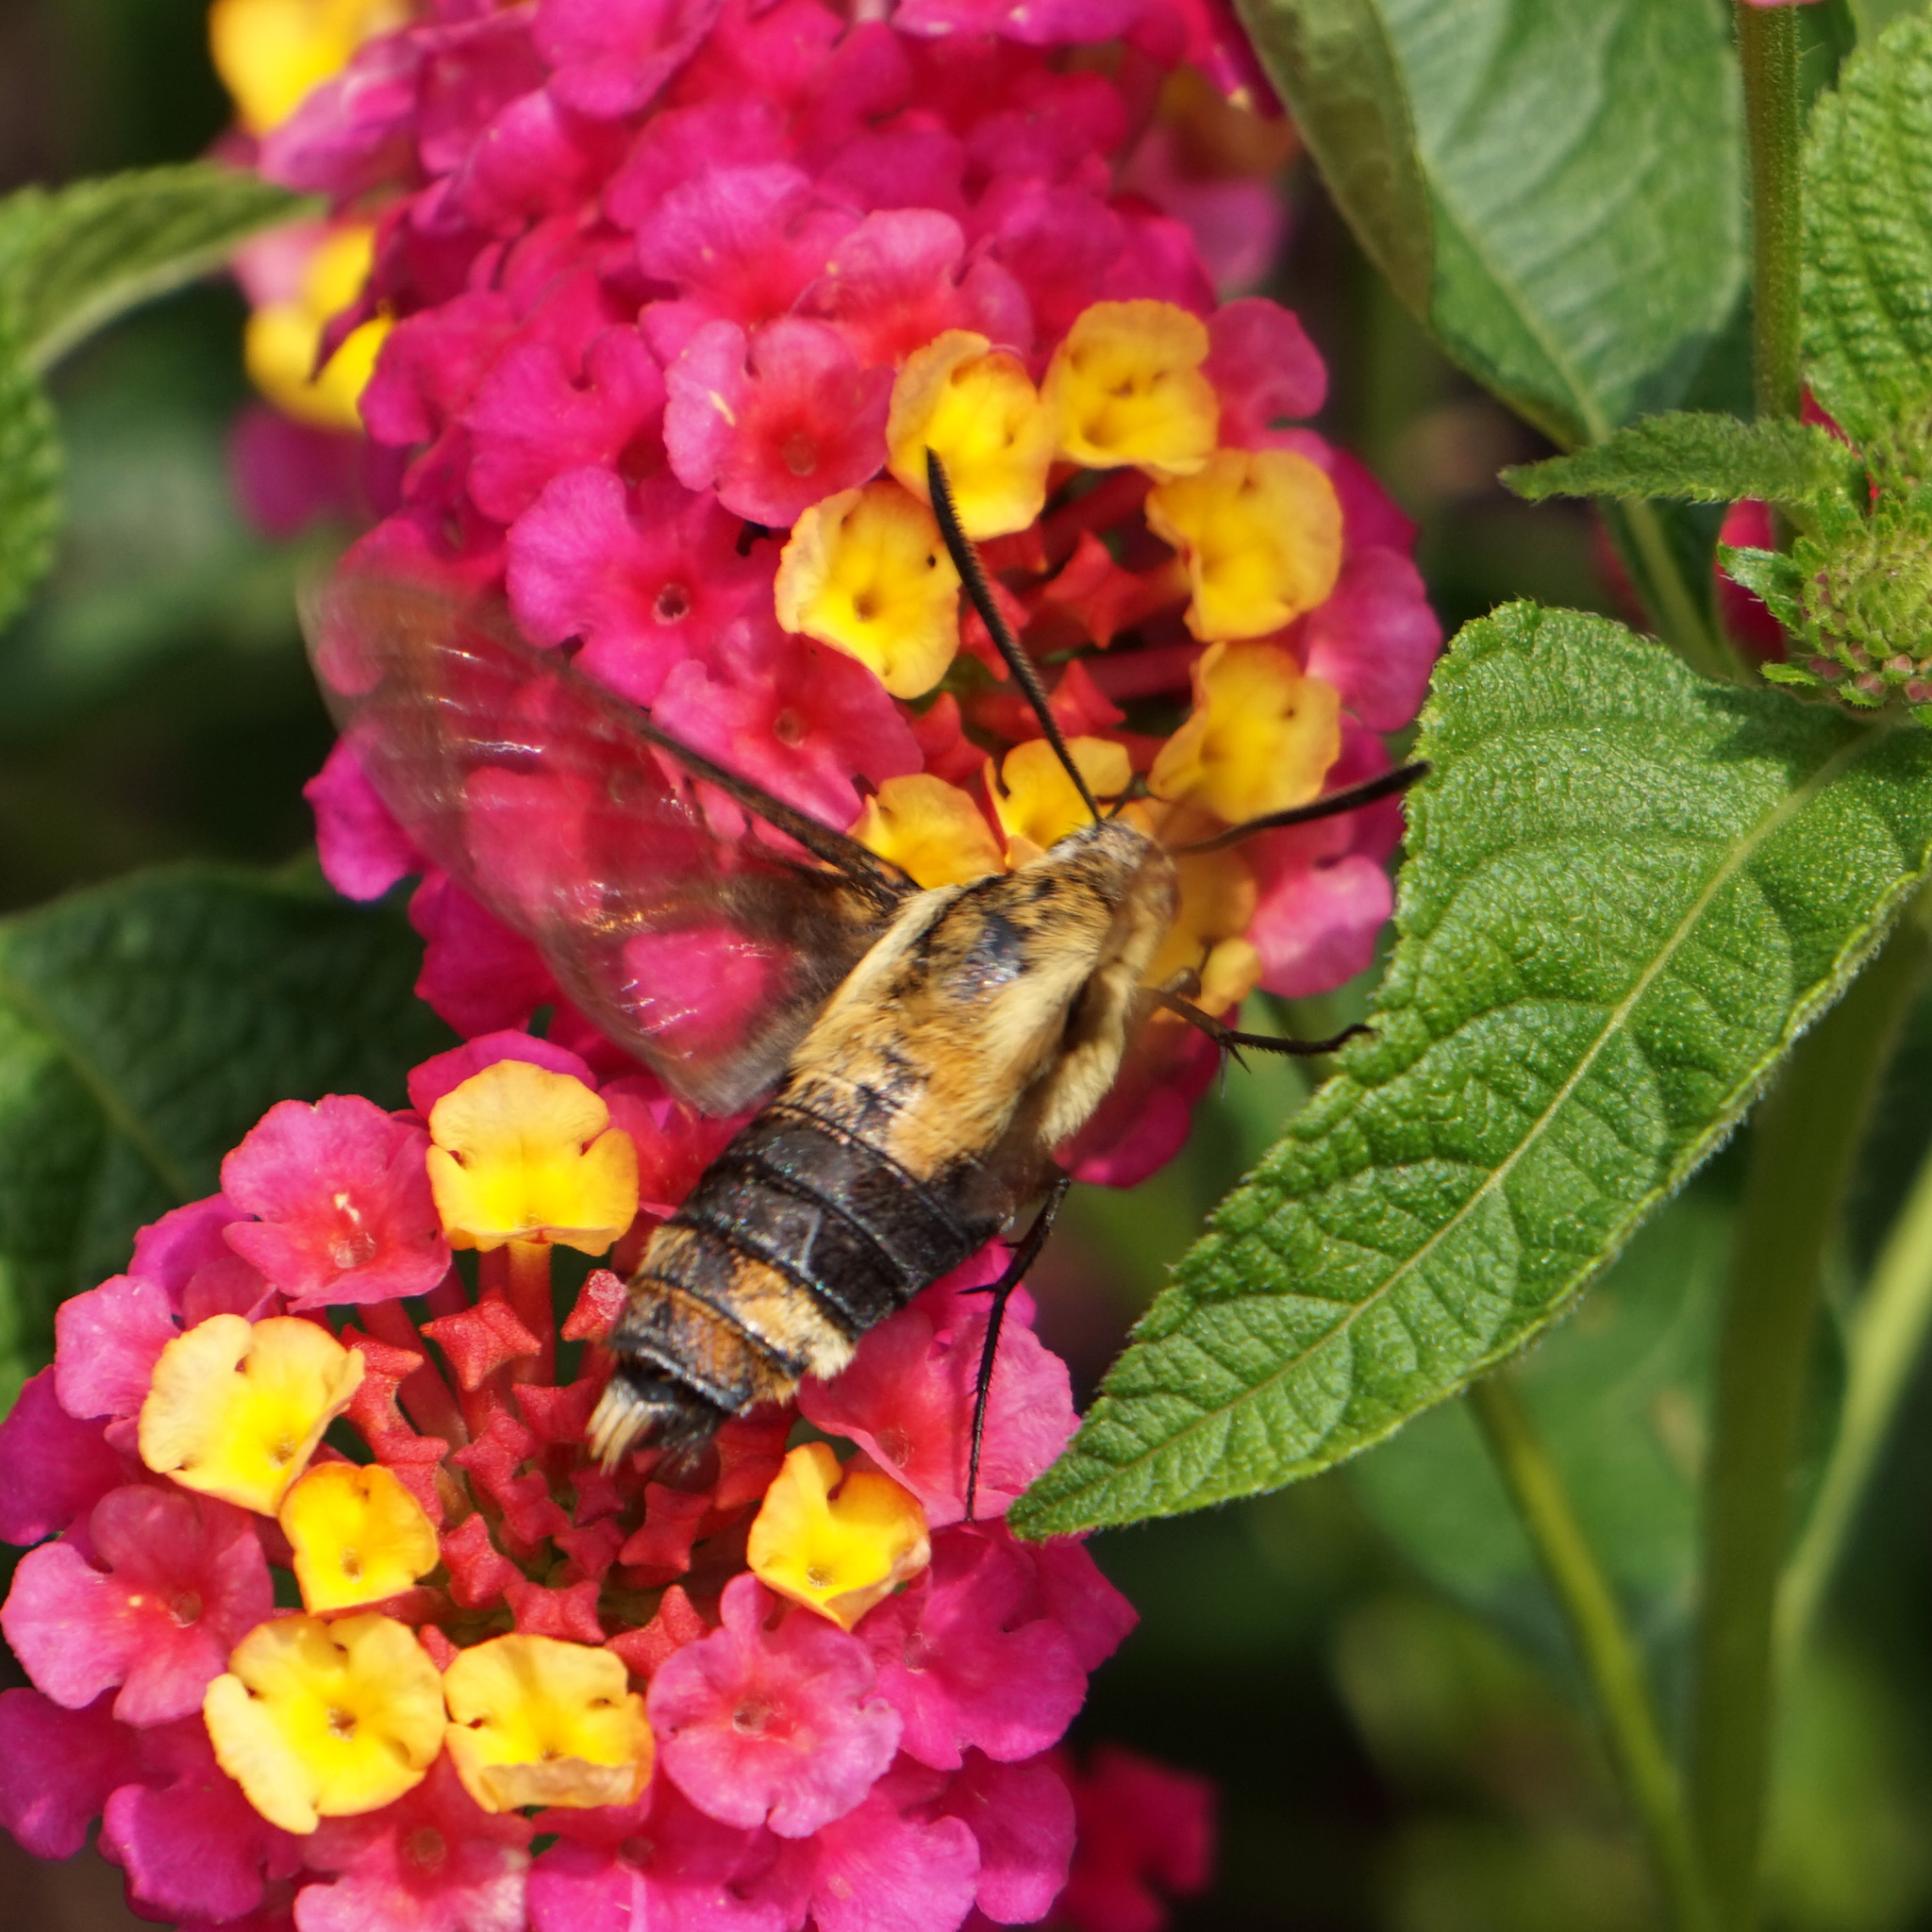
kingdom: Animalia
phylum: Arthropoda
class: Insecta
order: Lepidoptera
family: Sphingidae
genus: Hemaris
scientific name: Hemaris diffinis
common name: Bumblebee moth
